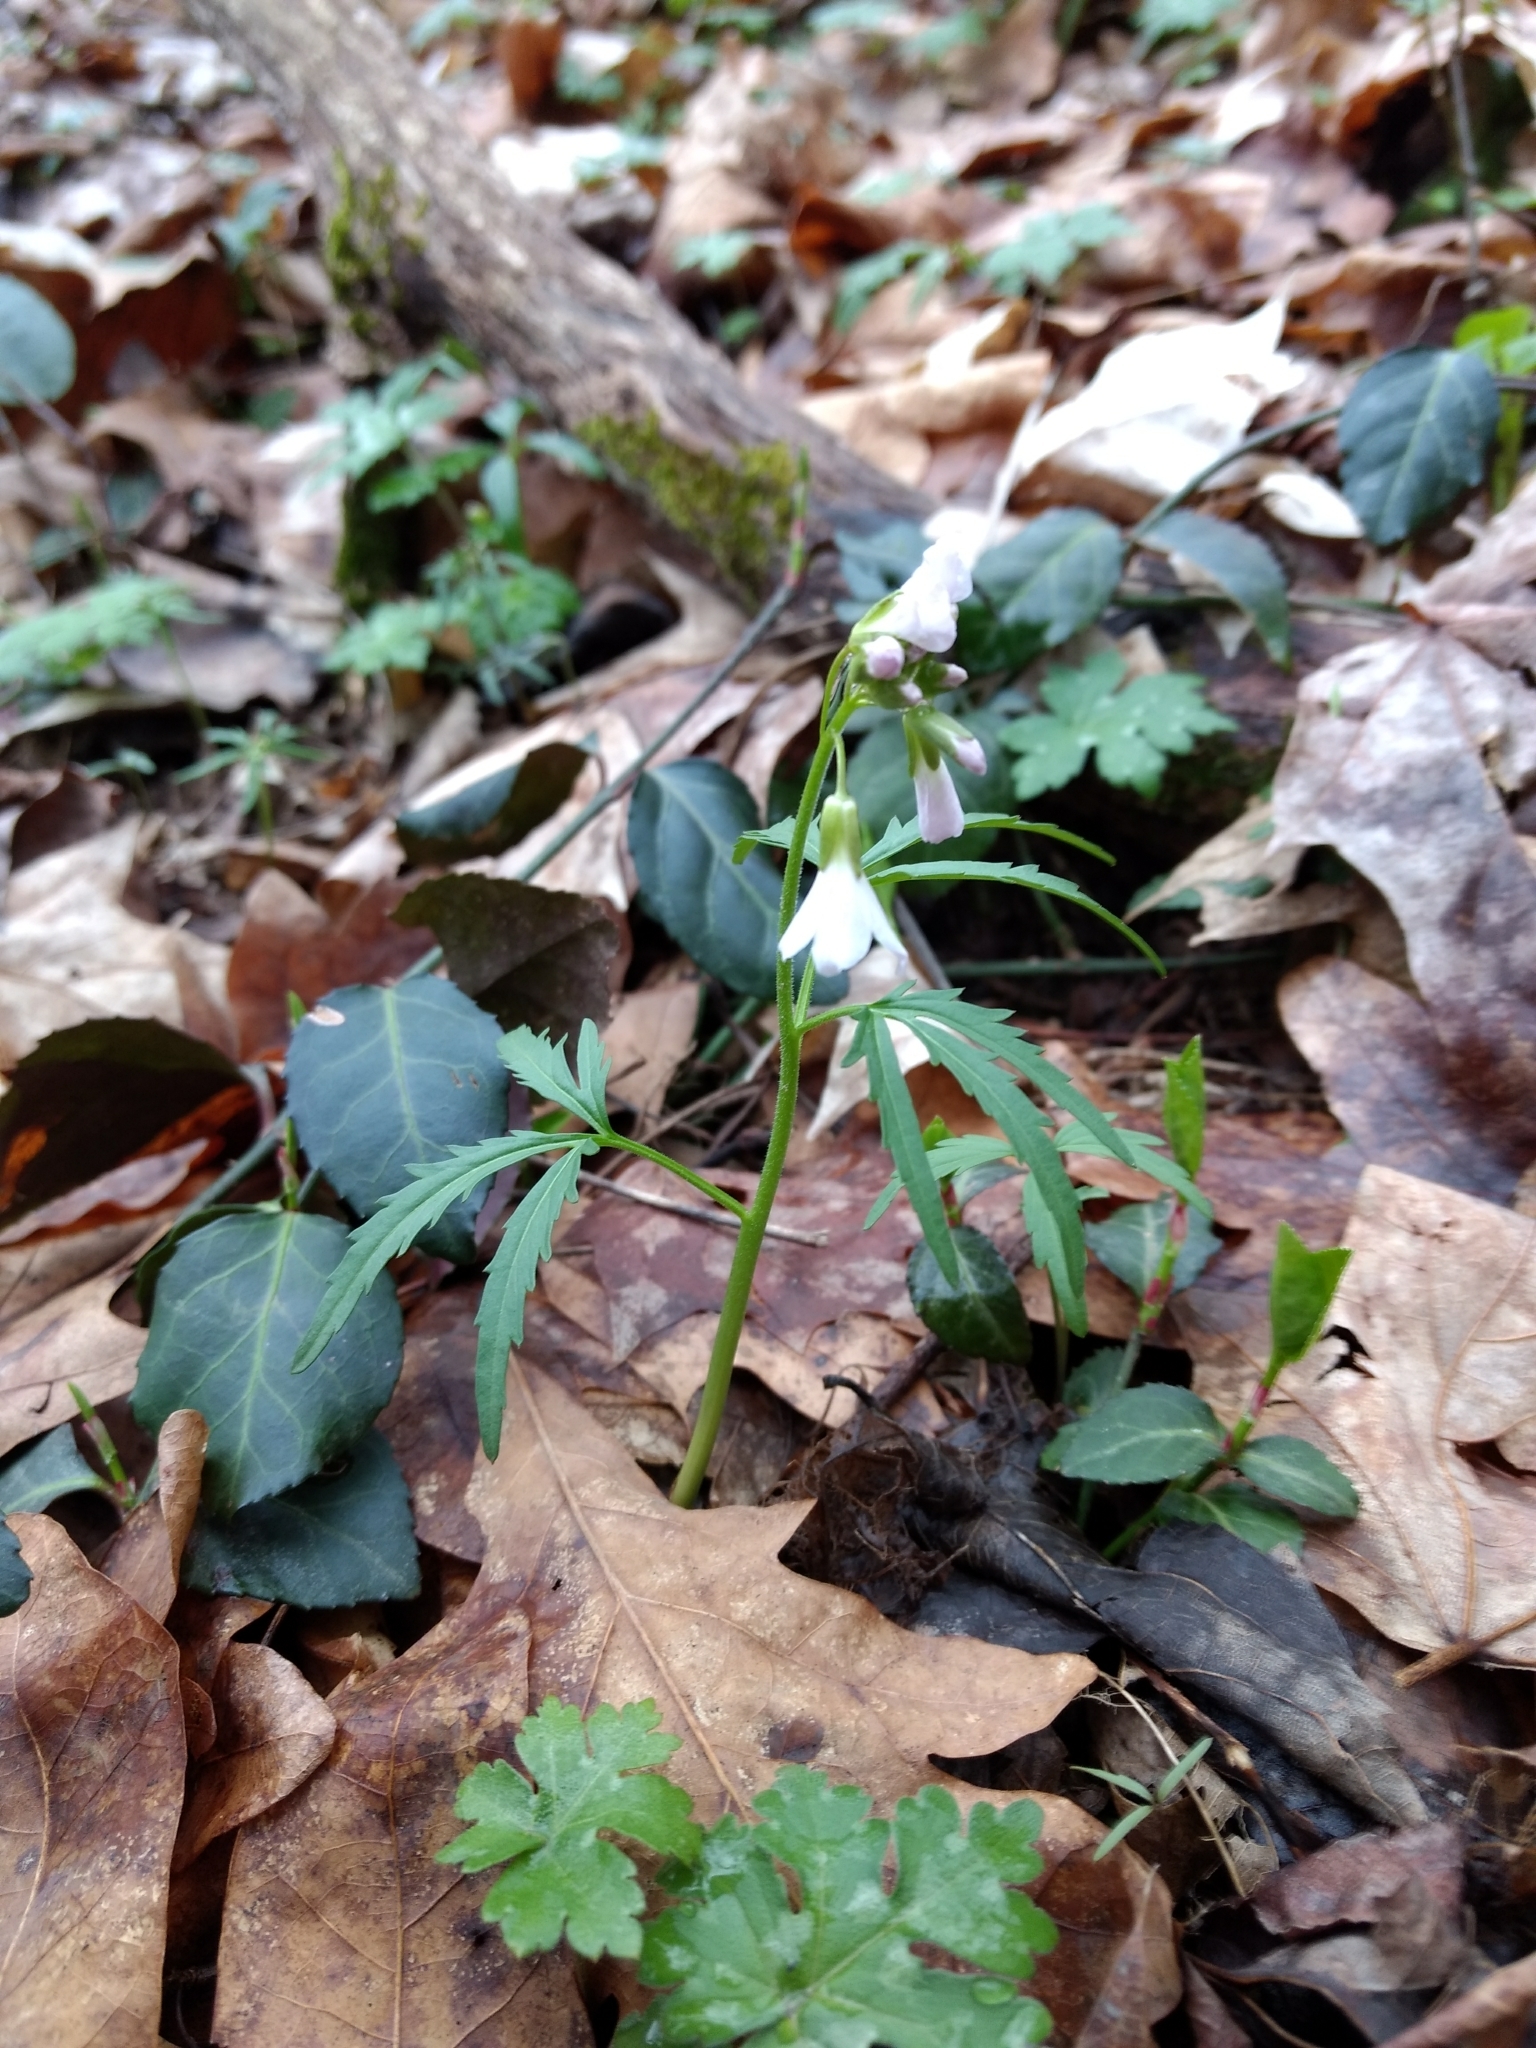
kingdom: Plantae
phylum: Tracheophyta
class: Magnoliopsida
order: Brassicales
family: Brassicaceae
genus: Cardamine
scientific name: Cardamine concatenata
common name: Cut-leaf toothcup
